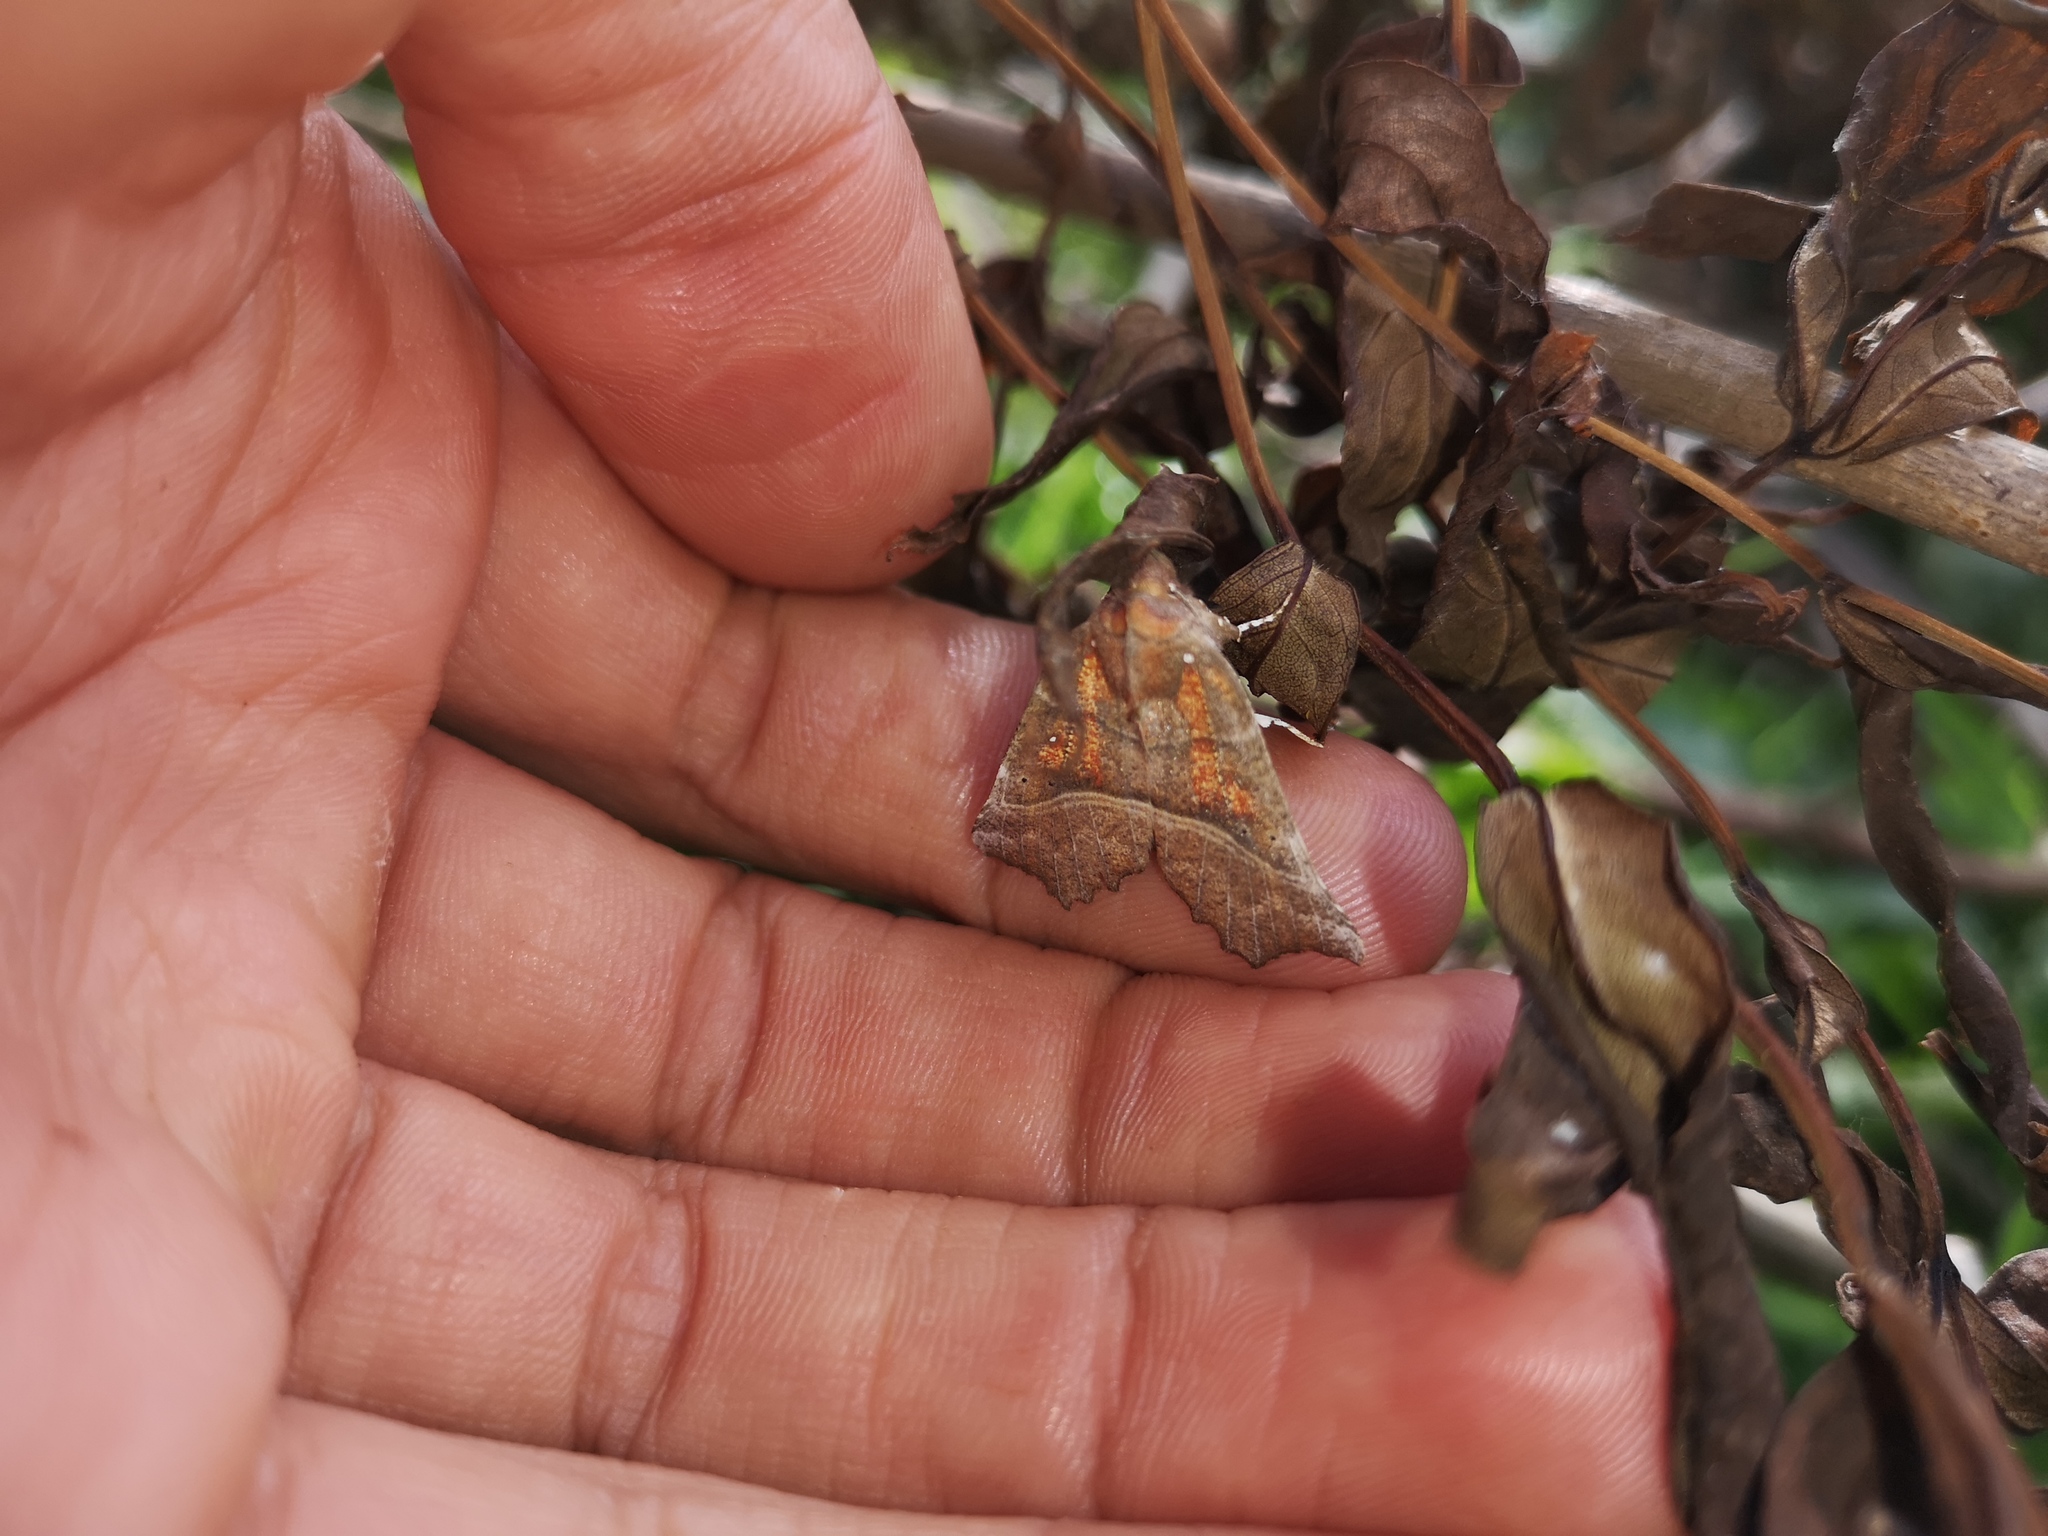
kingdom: Animalia
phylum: Arthropoda
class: Insecta
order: Lepidoptera
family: Erebidae
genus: Scoliopteryx
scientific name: Scoliopteryx libatrix
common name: Herald
